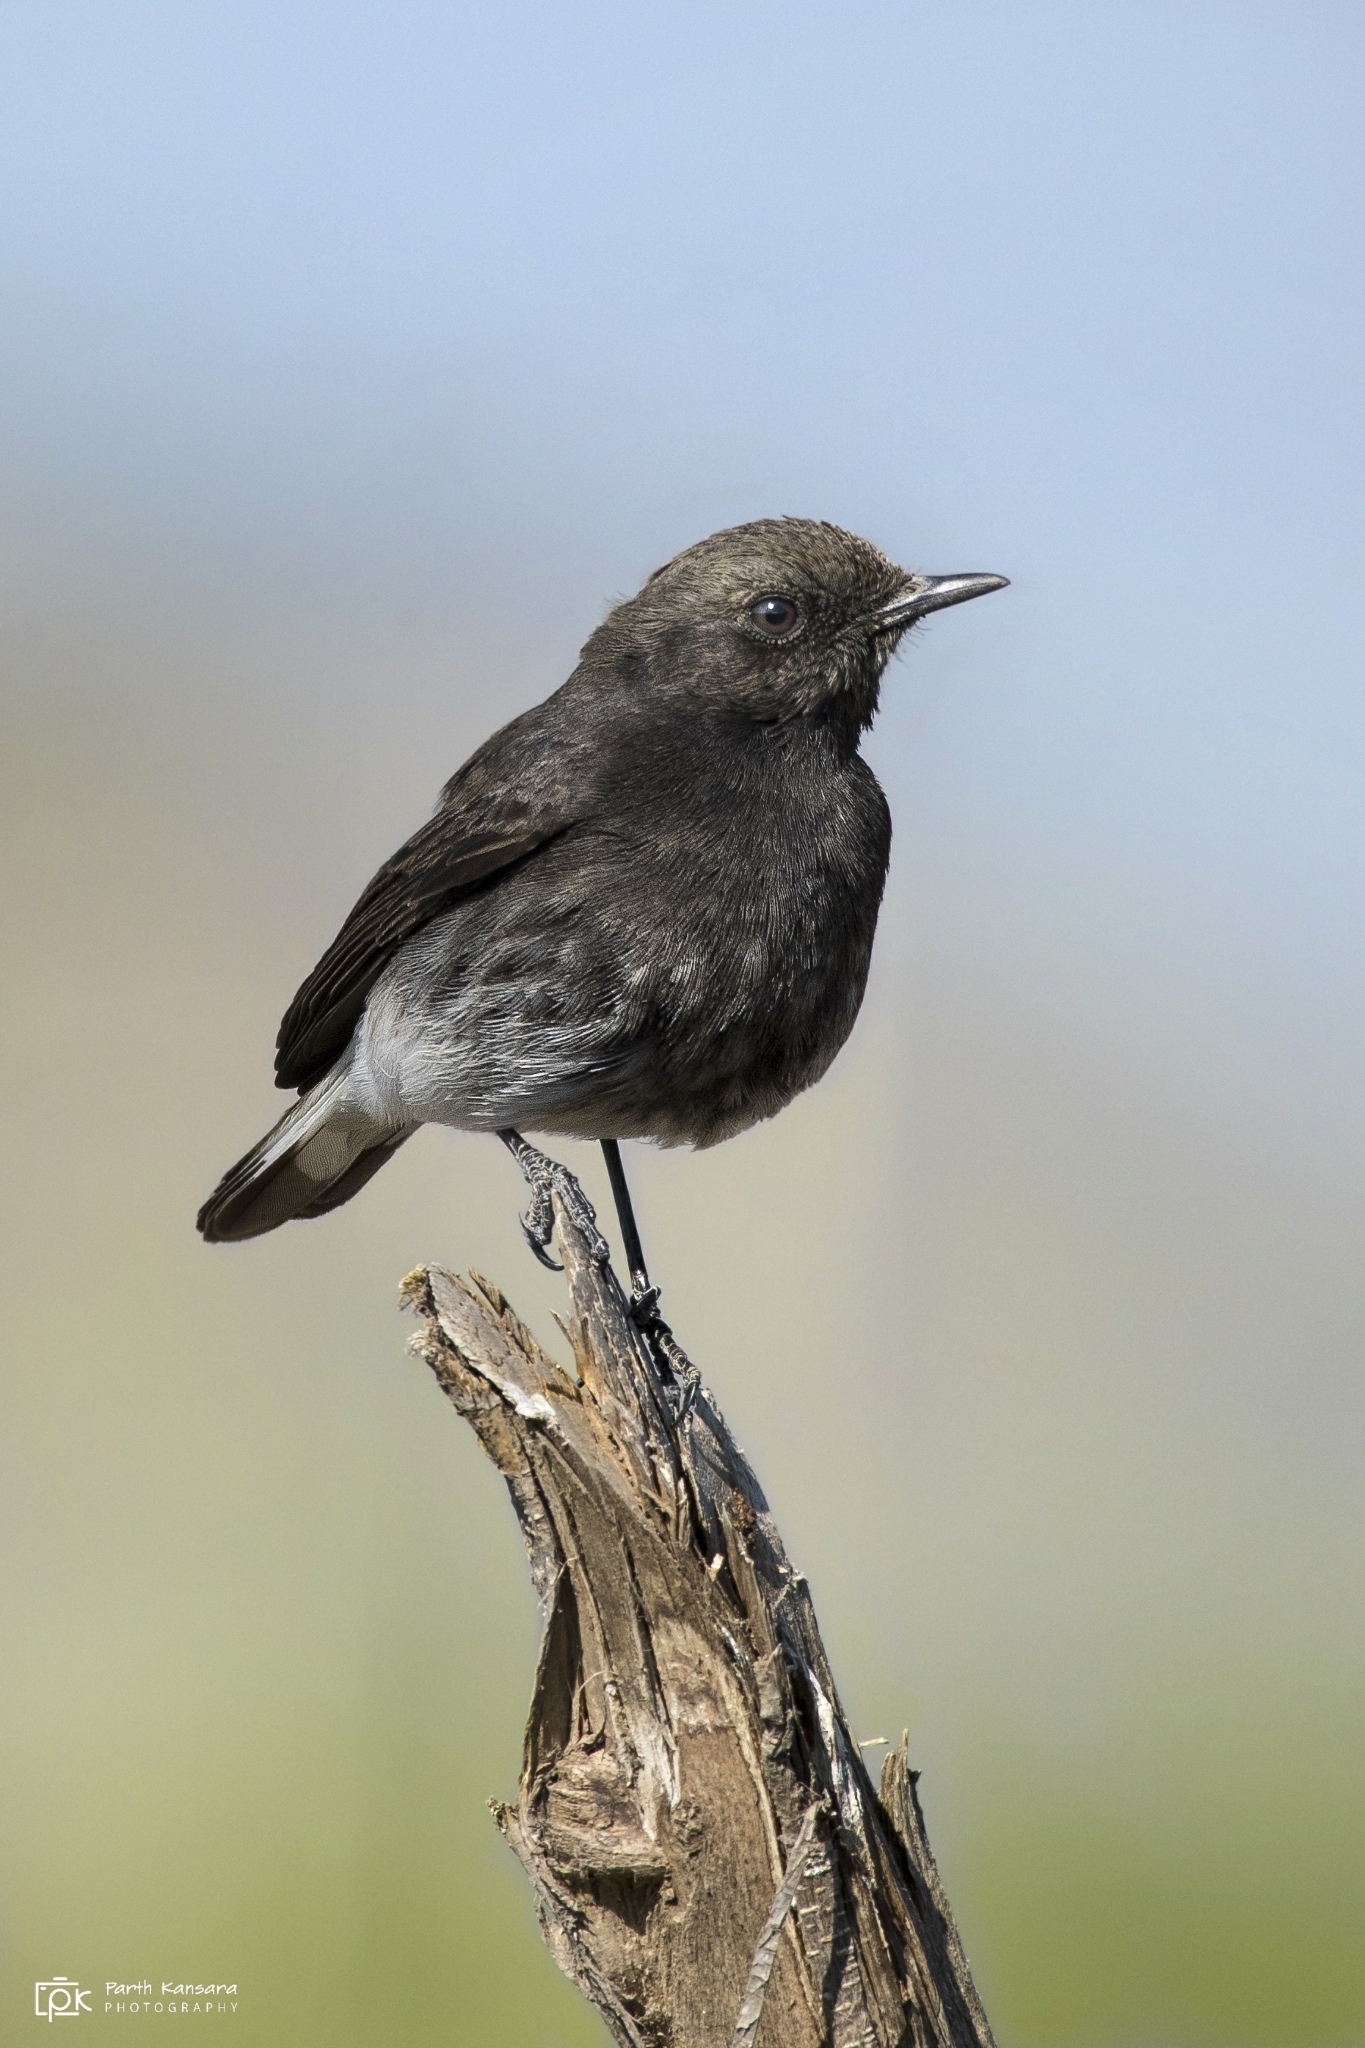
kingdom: Animalia
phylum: Chordata
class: Aves
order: Passeriformes
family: Muscicapidae
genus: Oenanthe
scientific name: Oenanthe picata
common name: Variable wheatear
